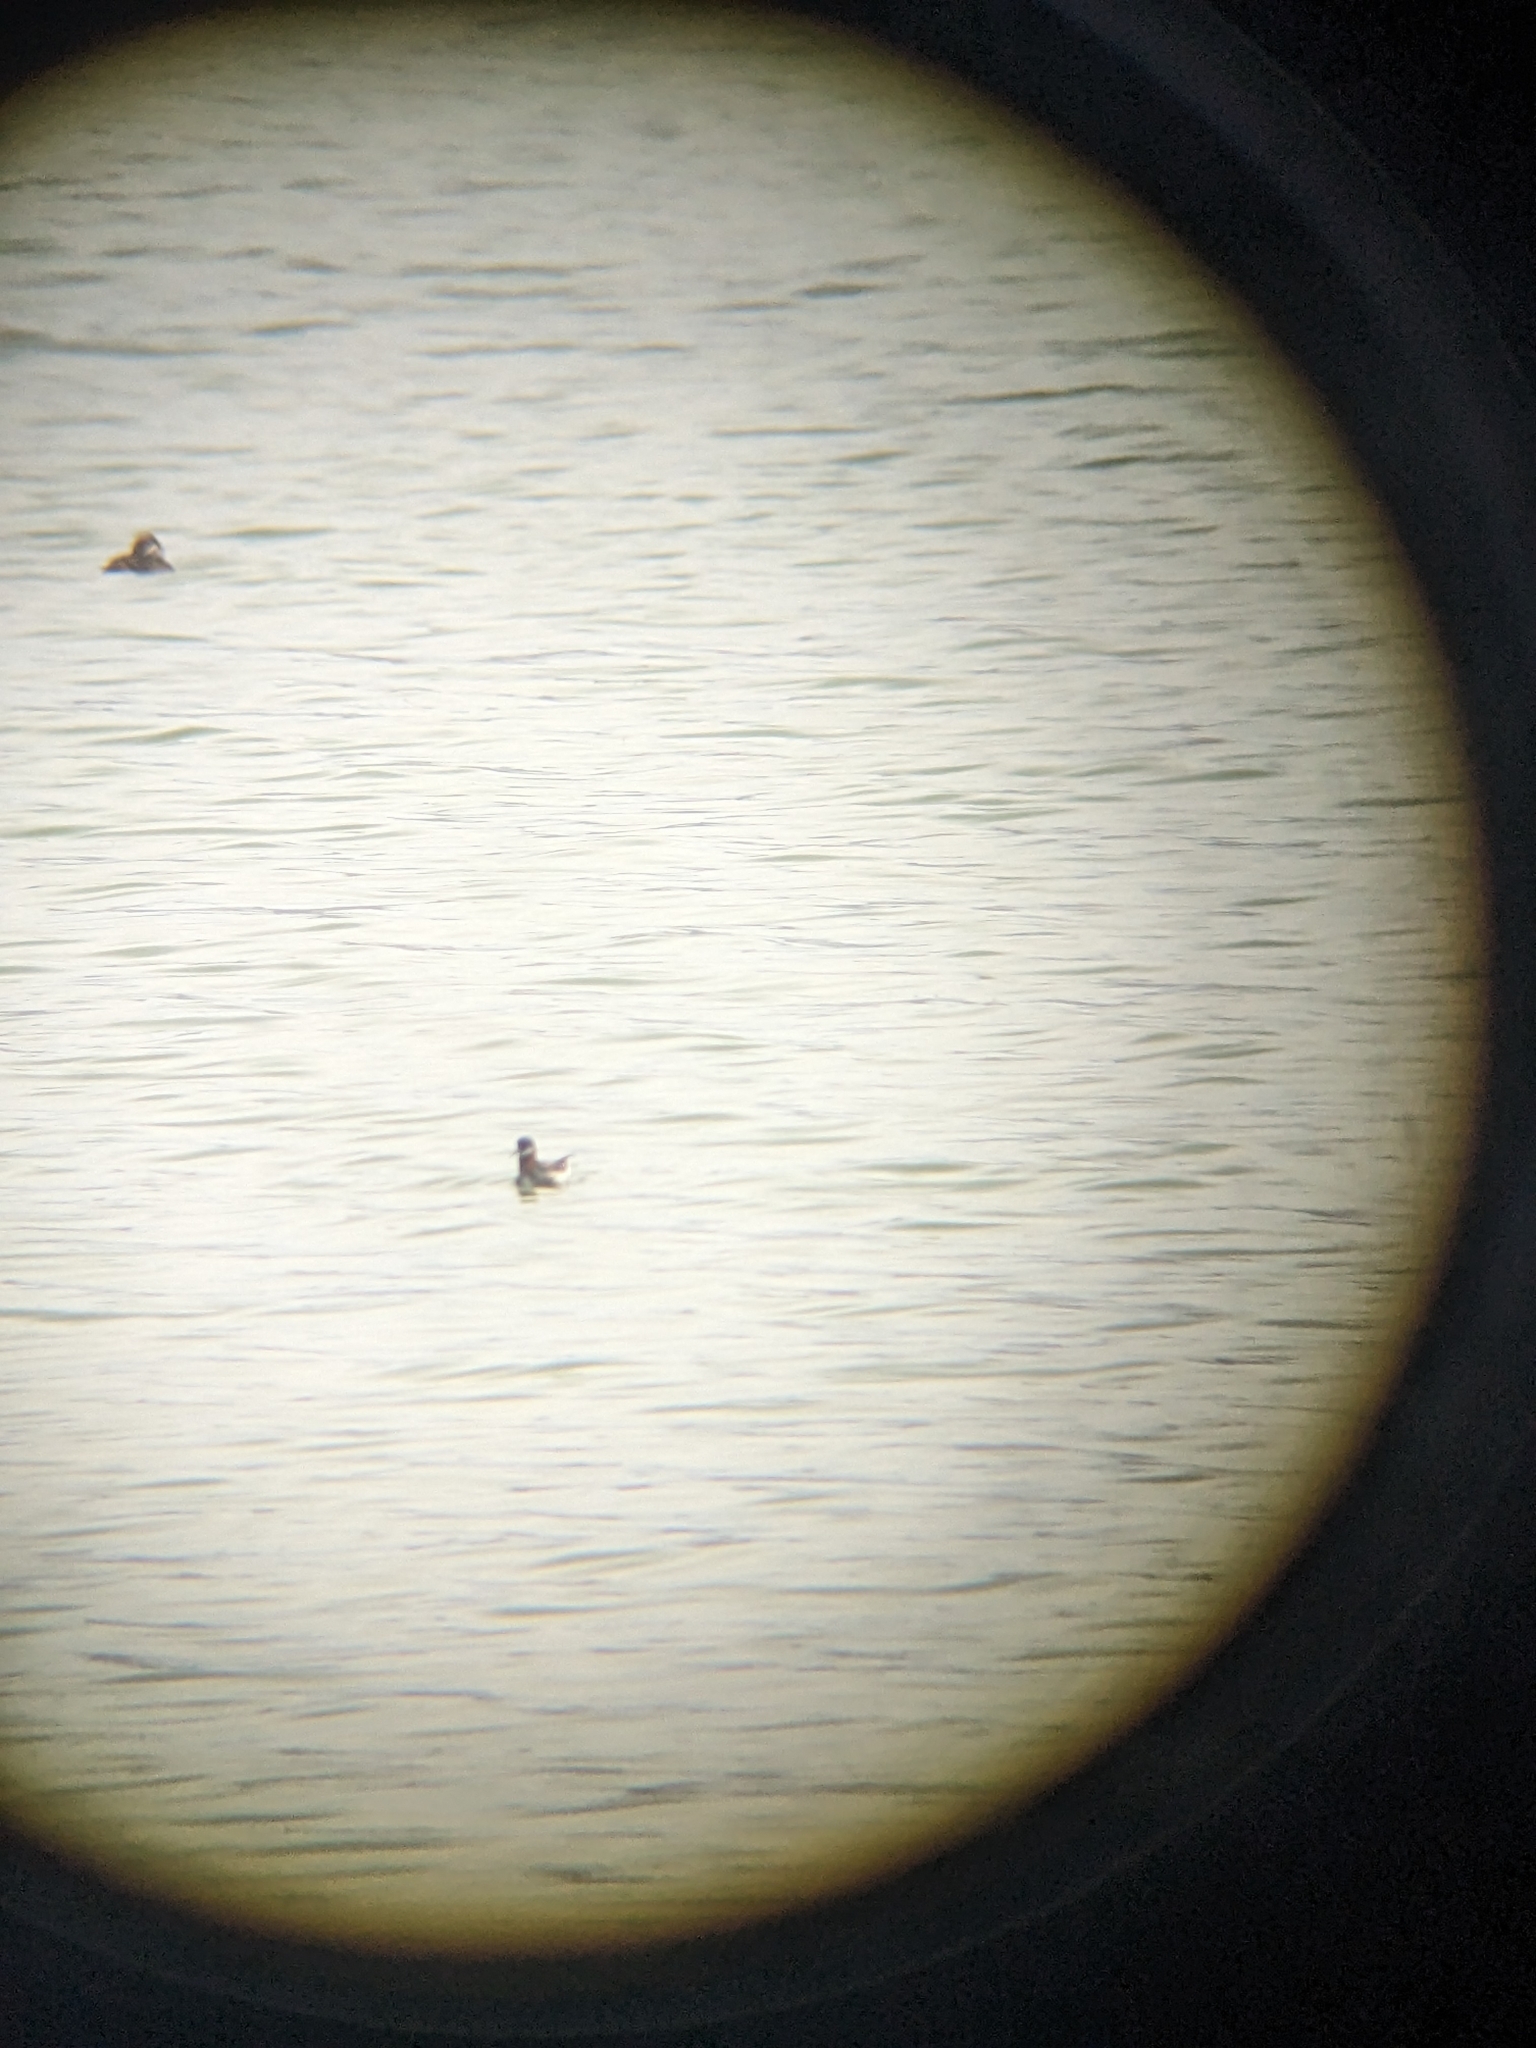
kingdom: Animalia
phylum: Chordata
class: Aves
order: Charadriiformes
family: Scolopacidae
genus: Phalaropus
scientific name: Phalaropus lobatus
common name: Red-necked phalarope
